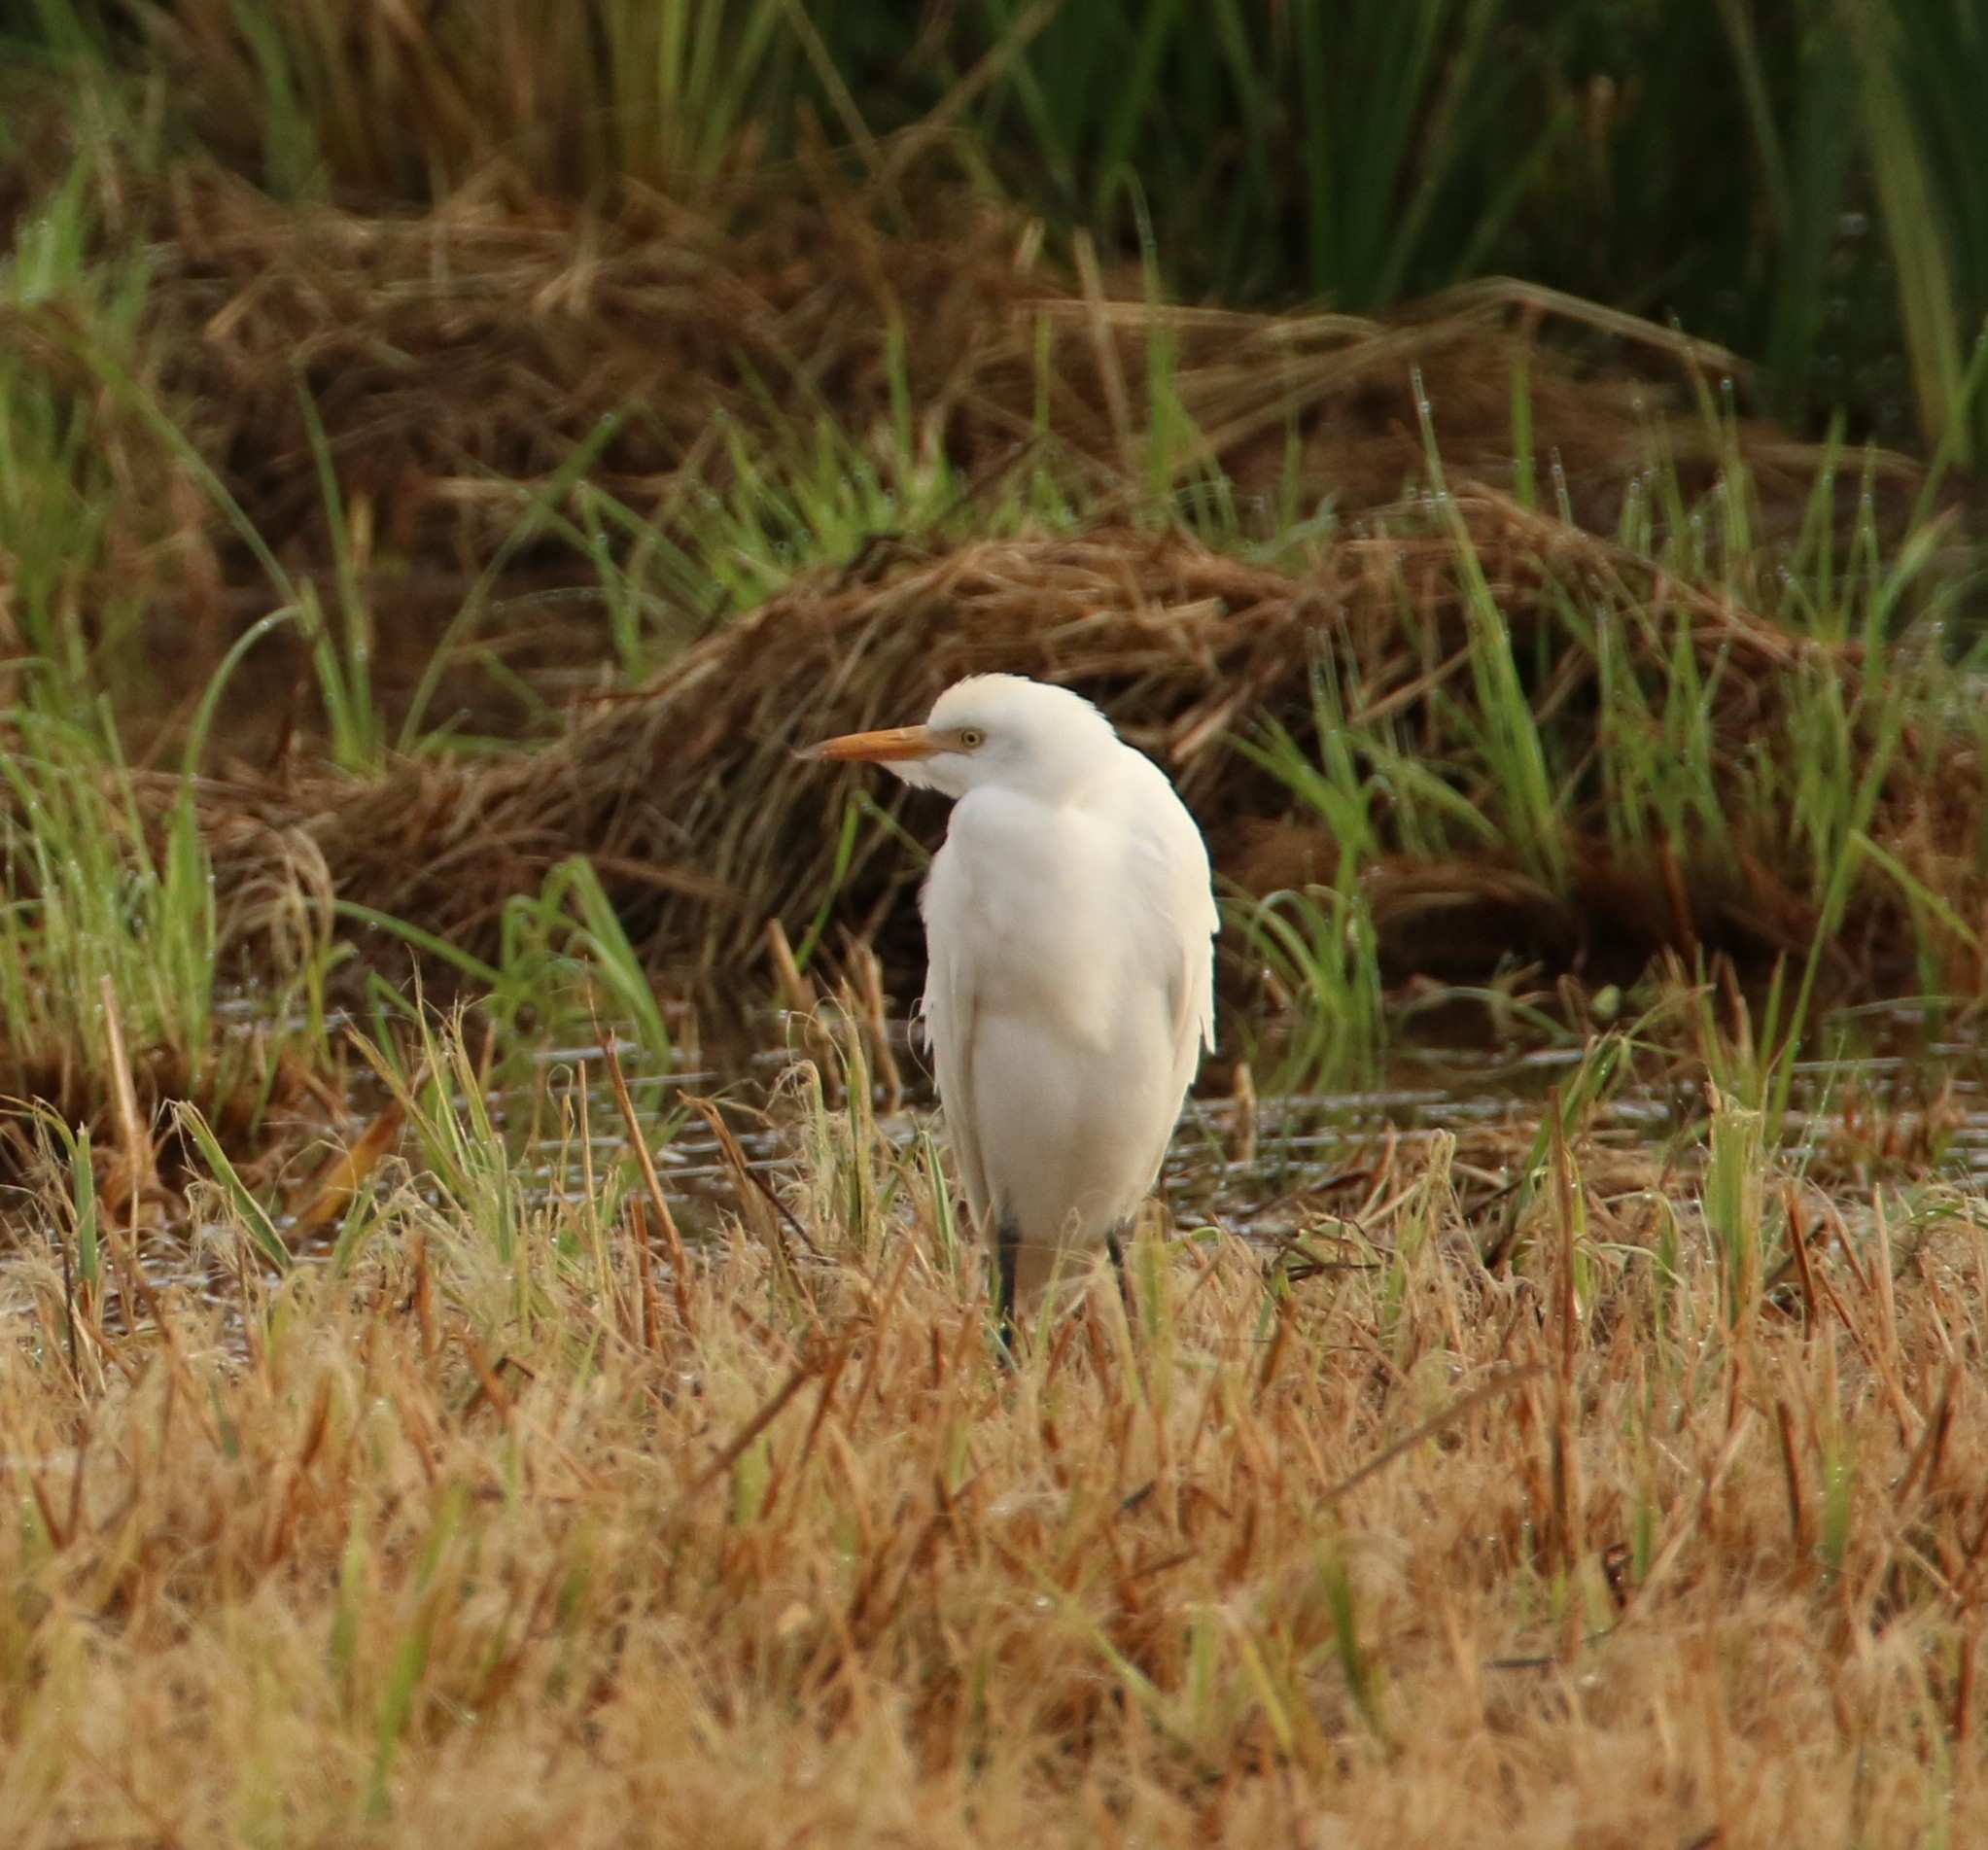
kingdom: Animalia
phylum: Chordata
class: Aves
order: Pelecaniformes
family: Ardeidae
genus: Bubulcus
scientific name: Bubulcus ibis
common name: Cattle egret
